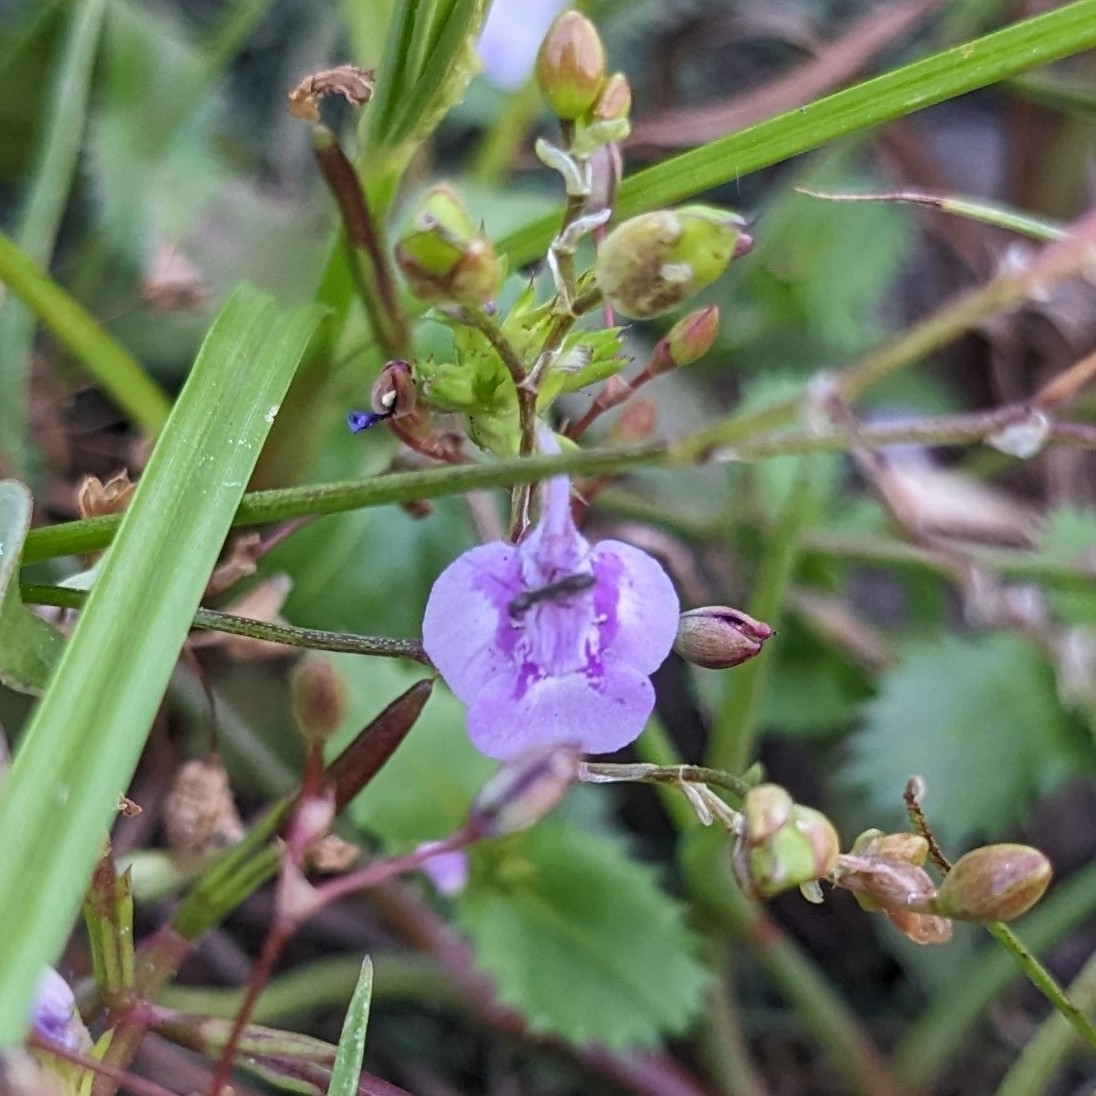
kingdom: Plantae
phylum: Tracheophyta
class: Magnoliopsida
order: Lamiales
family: Linderniaceae
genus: Bonnaya
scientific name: Bonnaya ciliata
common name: Hairy slitwort
